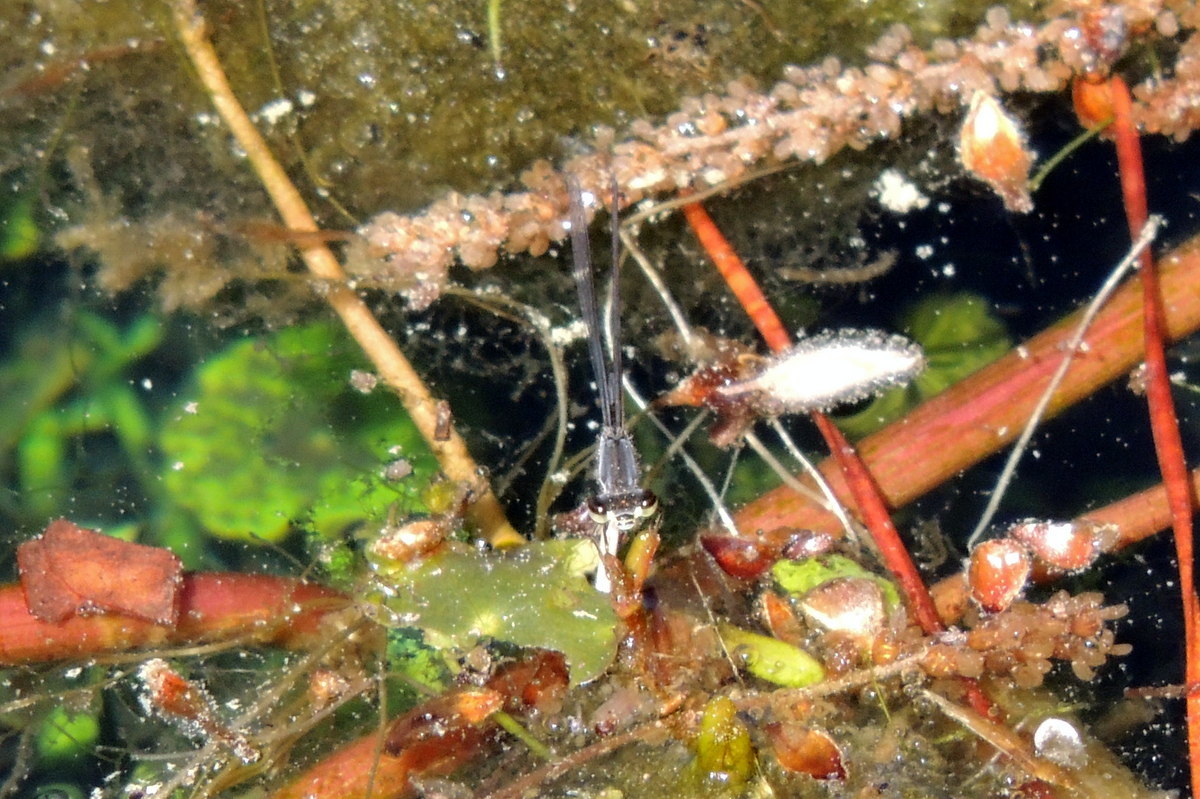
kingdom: Animalia
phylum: Arthropoda
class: Insecta
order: Odonata
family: Coenagrionidae
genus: Ischnura
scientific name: Ischnura posita
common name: Fragile forktail
